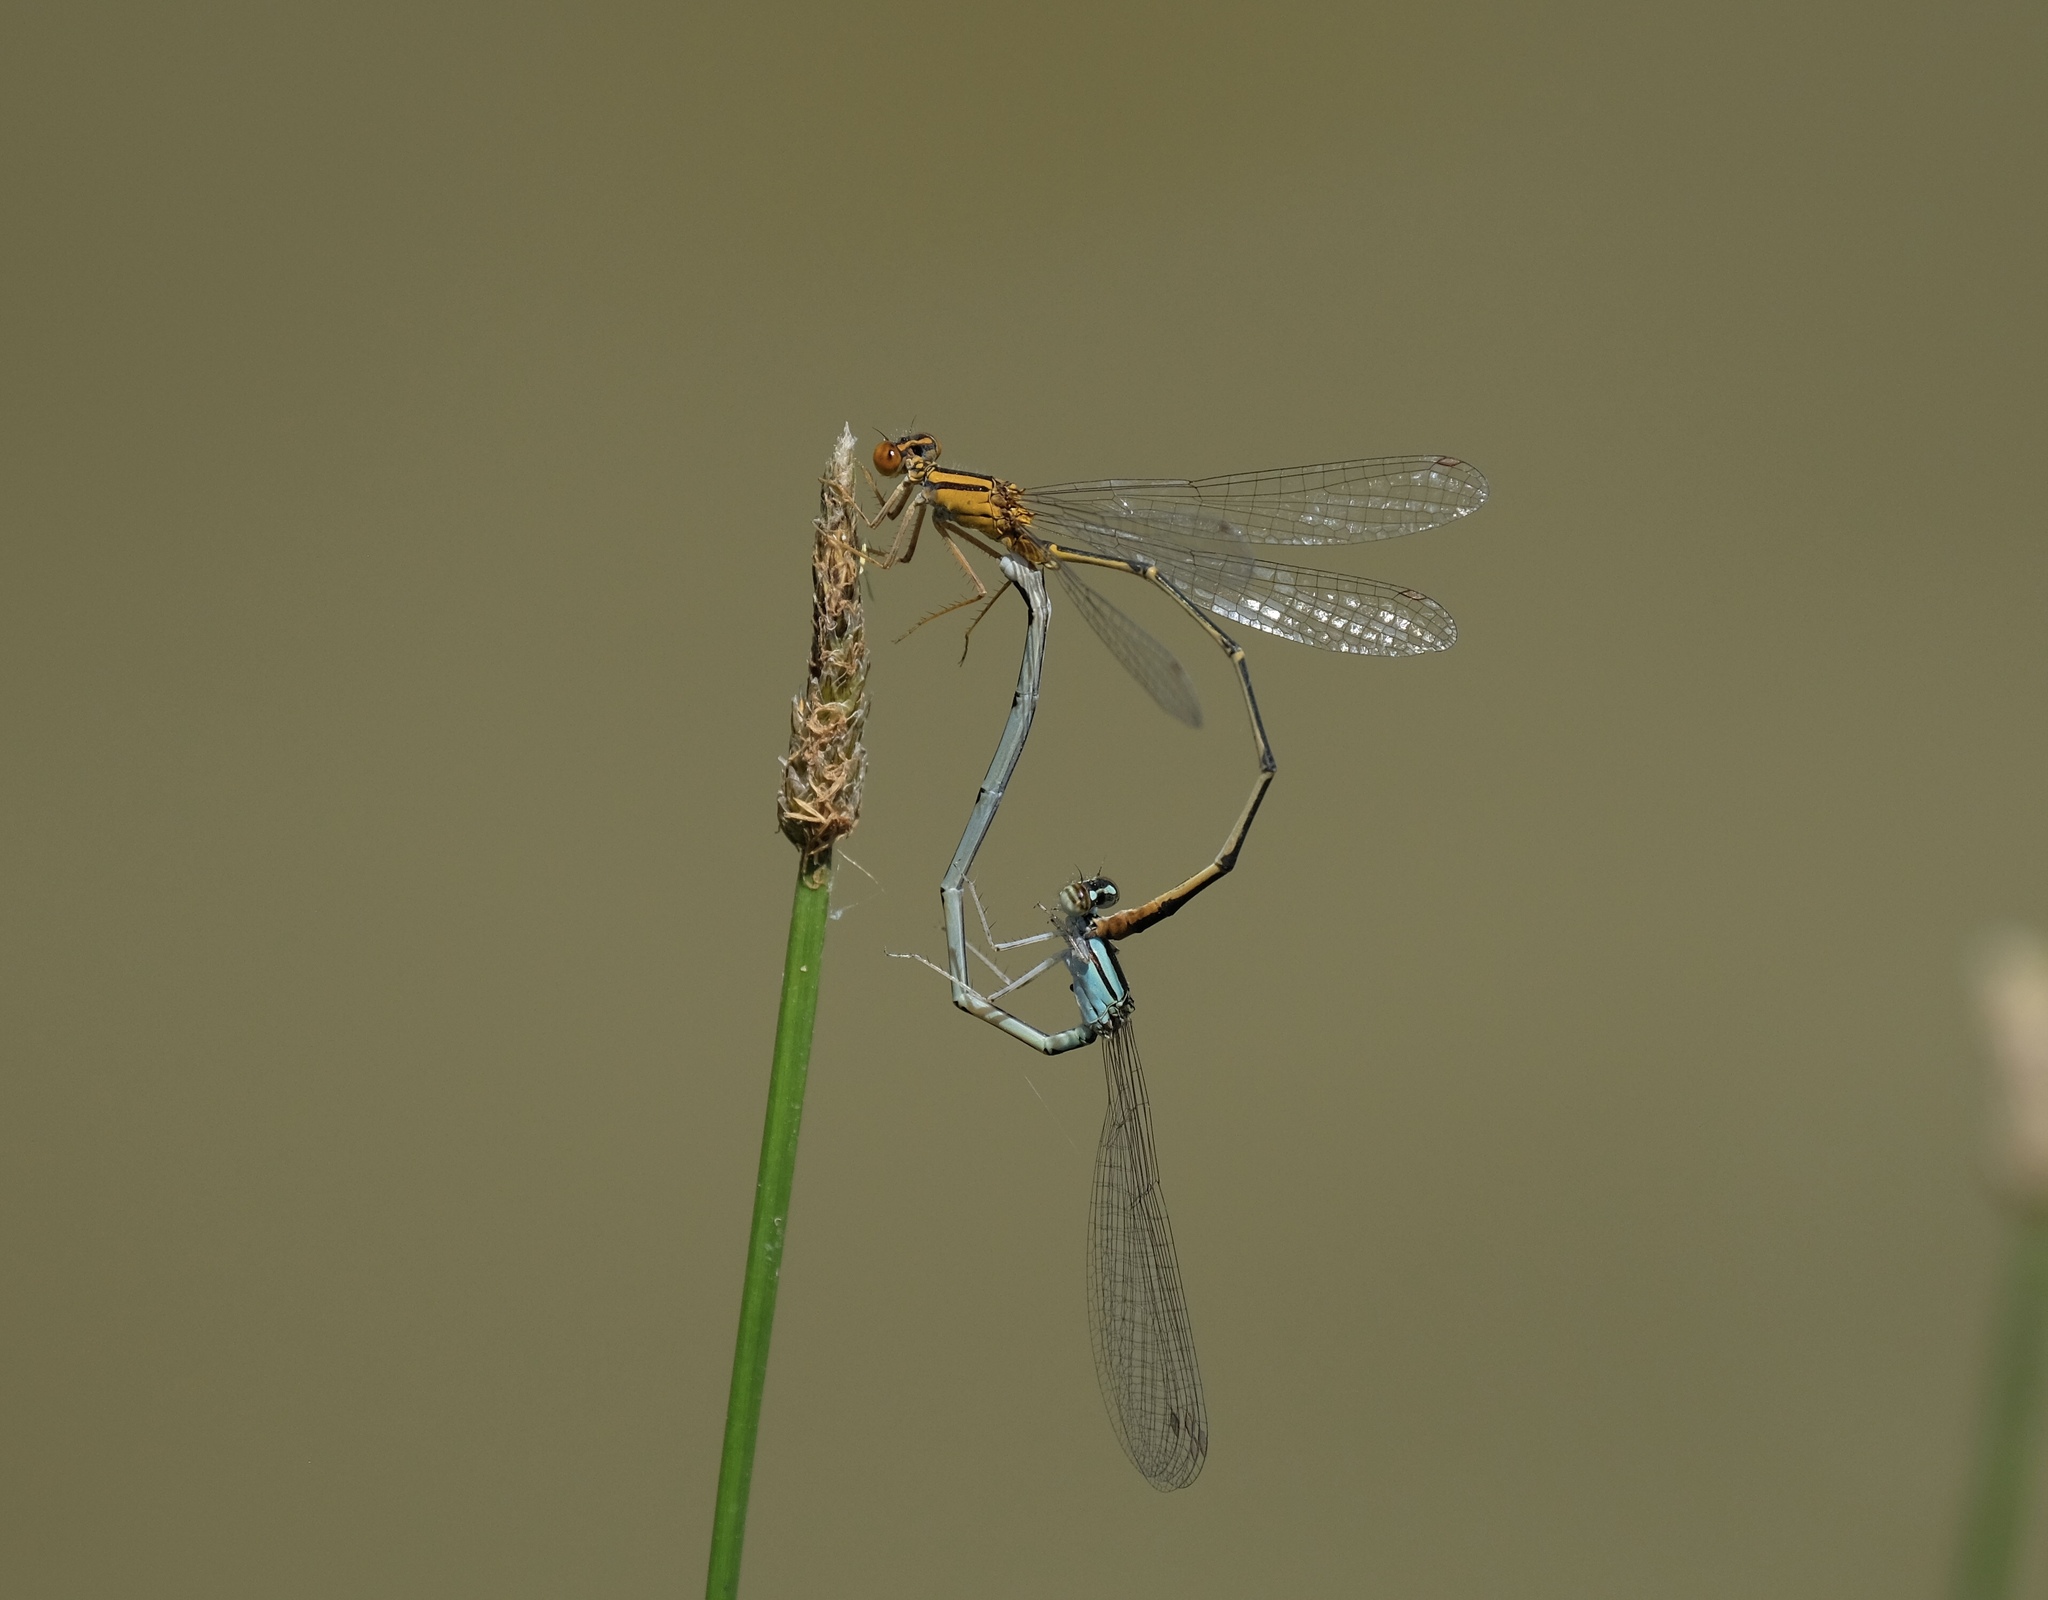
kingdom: Animalia
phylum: Arthropoda
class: Insecta
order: Odonata
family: Coenagrionidae
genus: Enallagma
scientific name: Enallagma signatum
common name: Orange bluet
